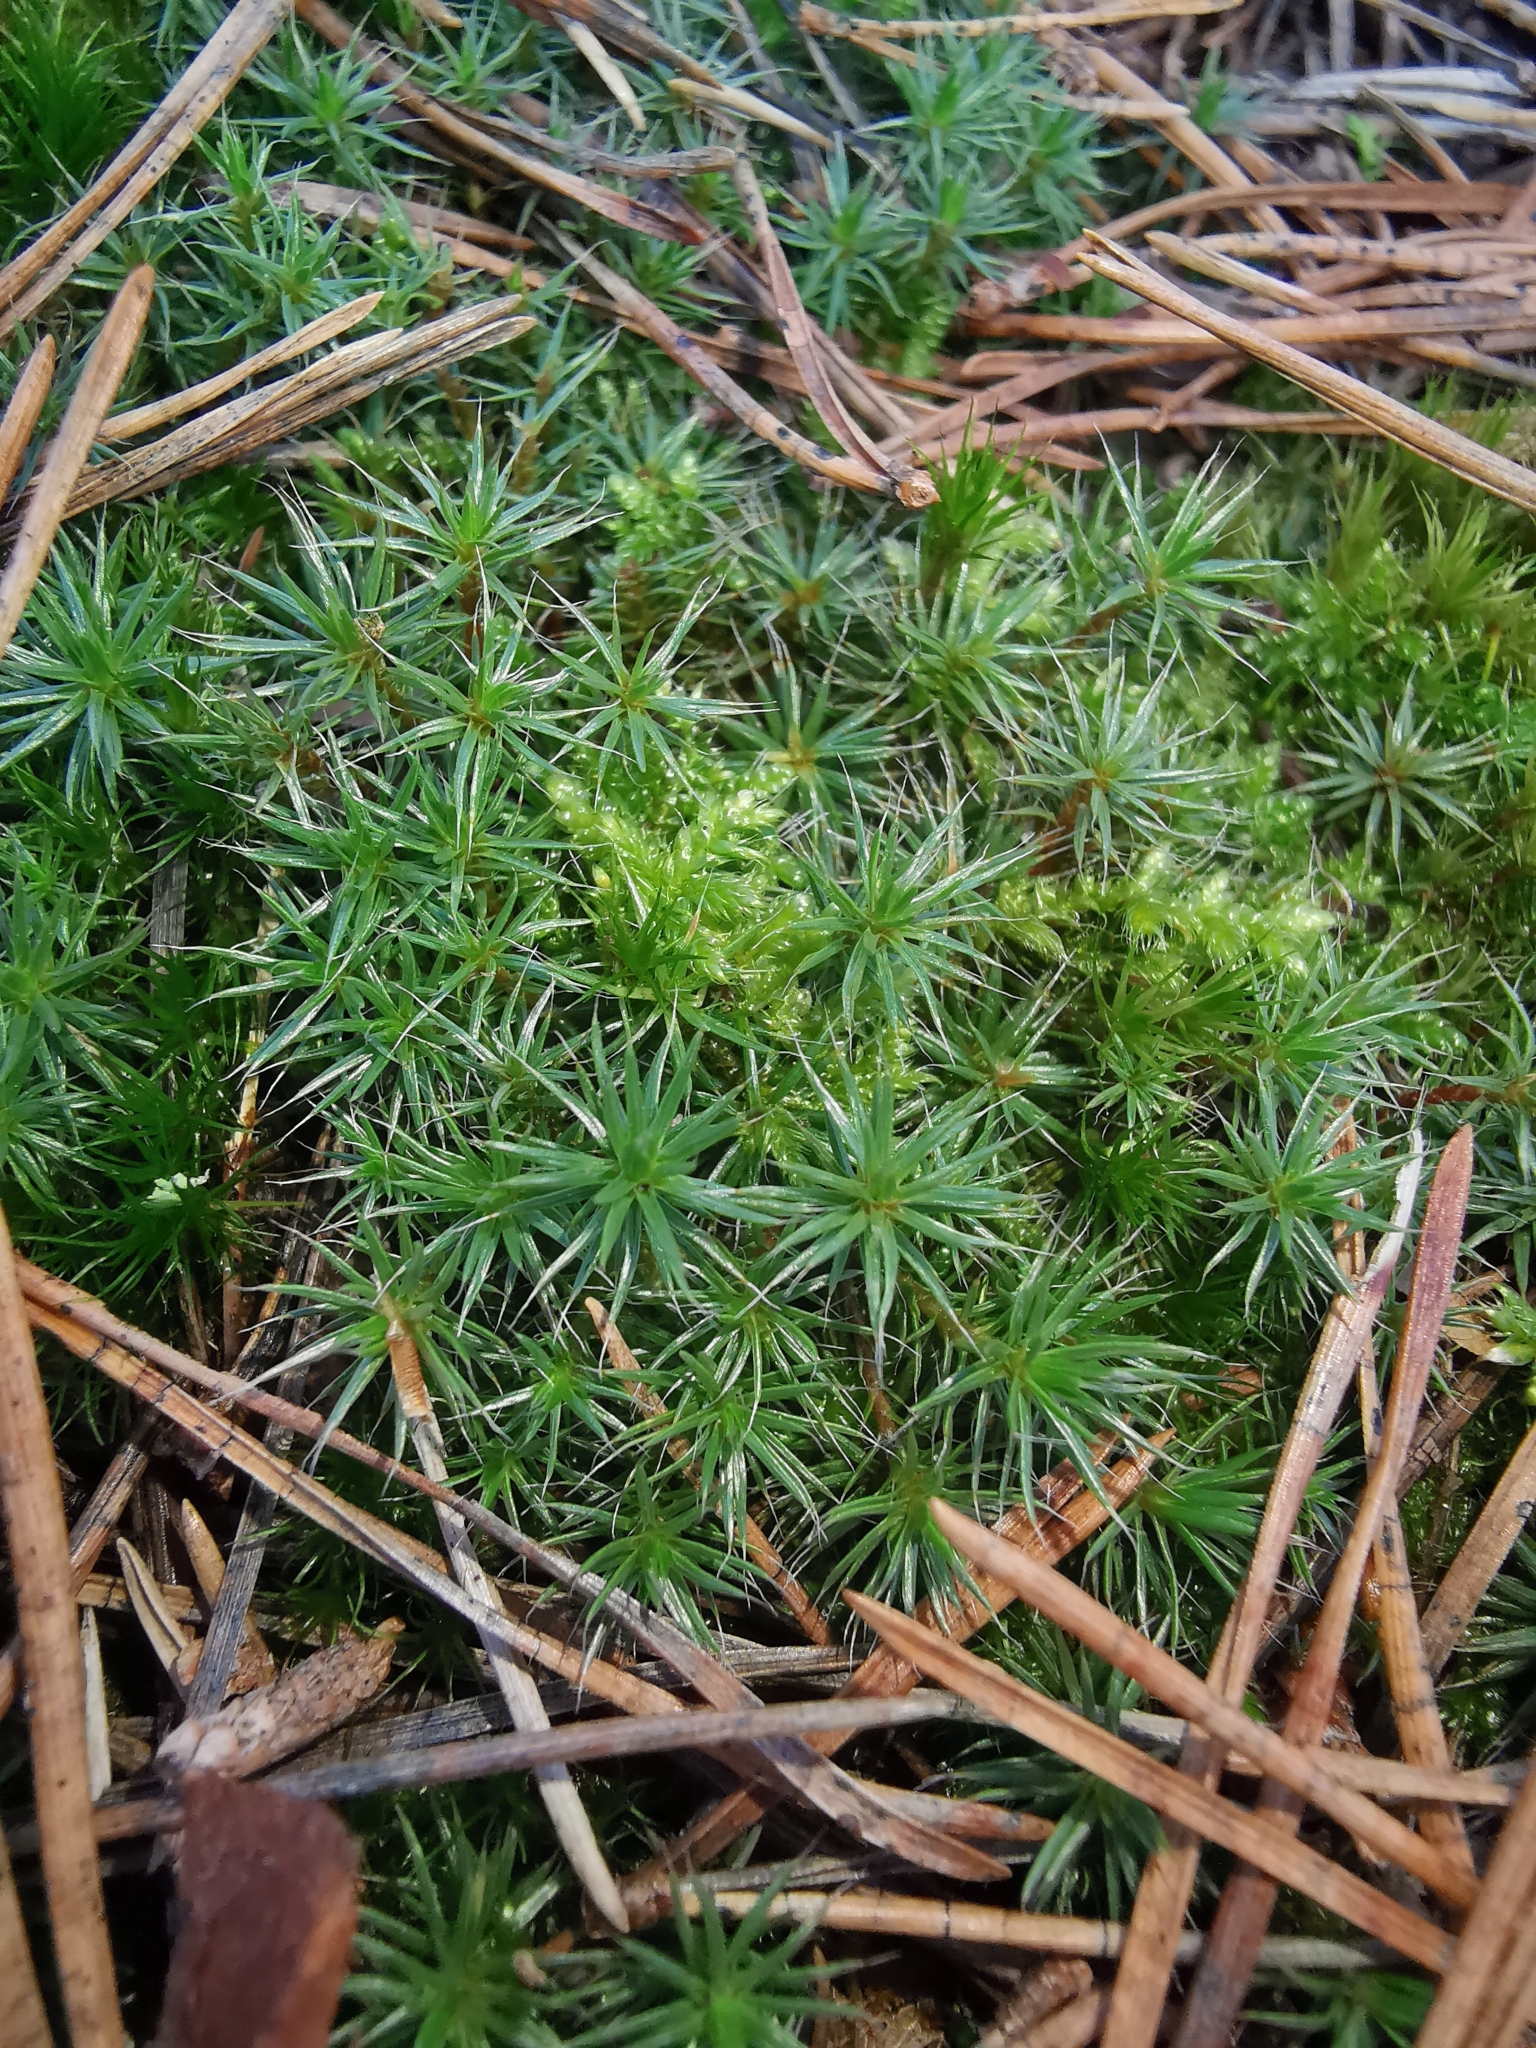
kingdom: Plantae
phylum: Bryophyta
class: Polytrichopsida
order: Polytrichales
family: Polytrichaceae
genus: Polytrichum
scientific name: Polytrichum piliferum
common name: Bristly haircap
